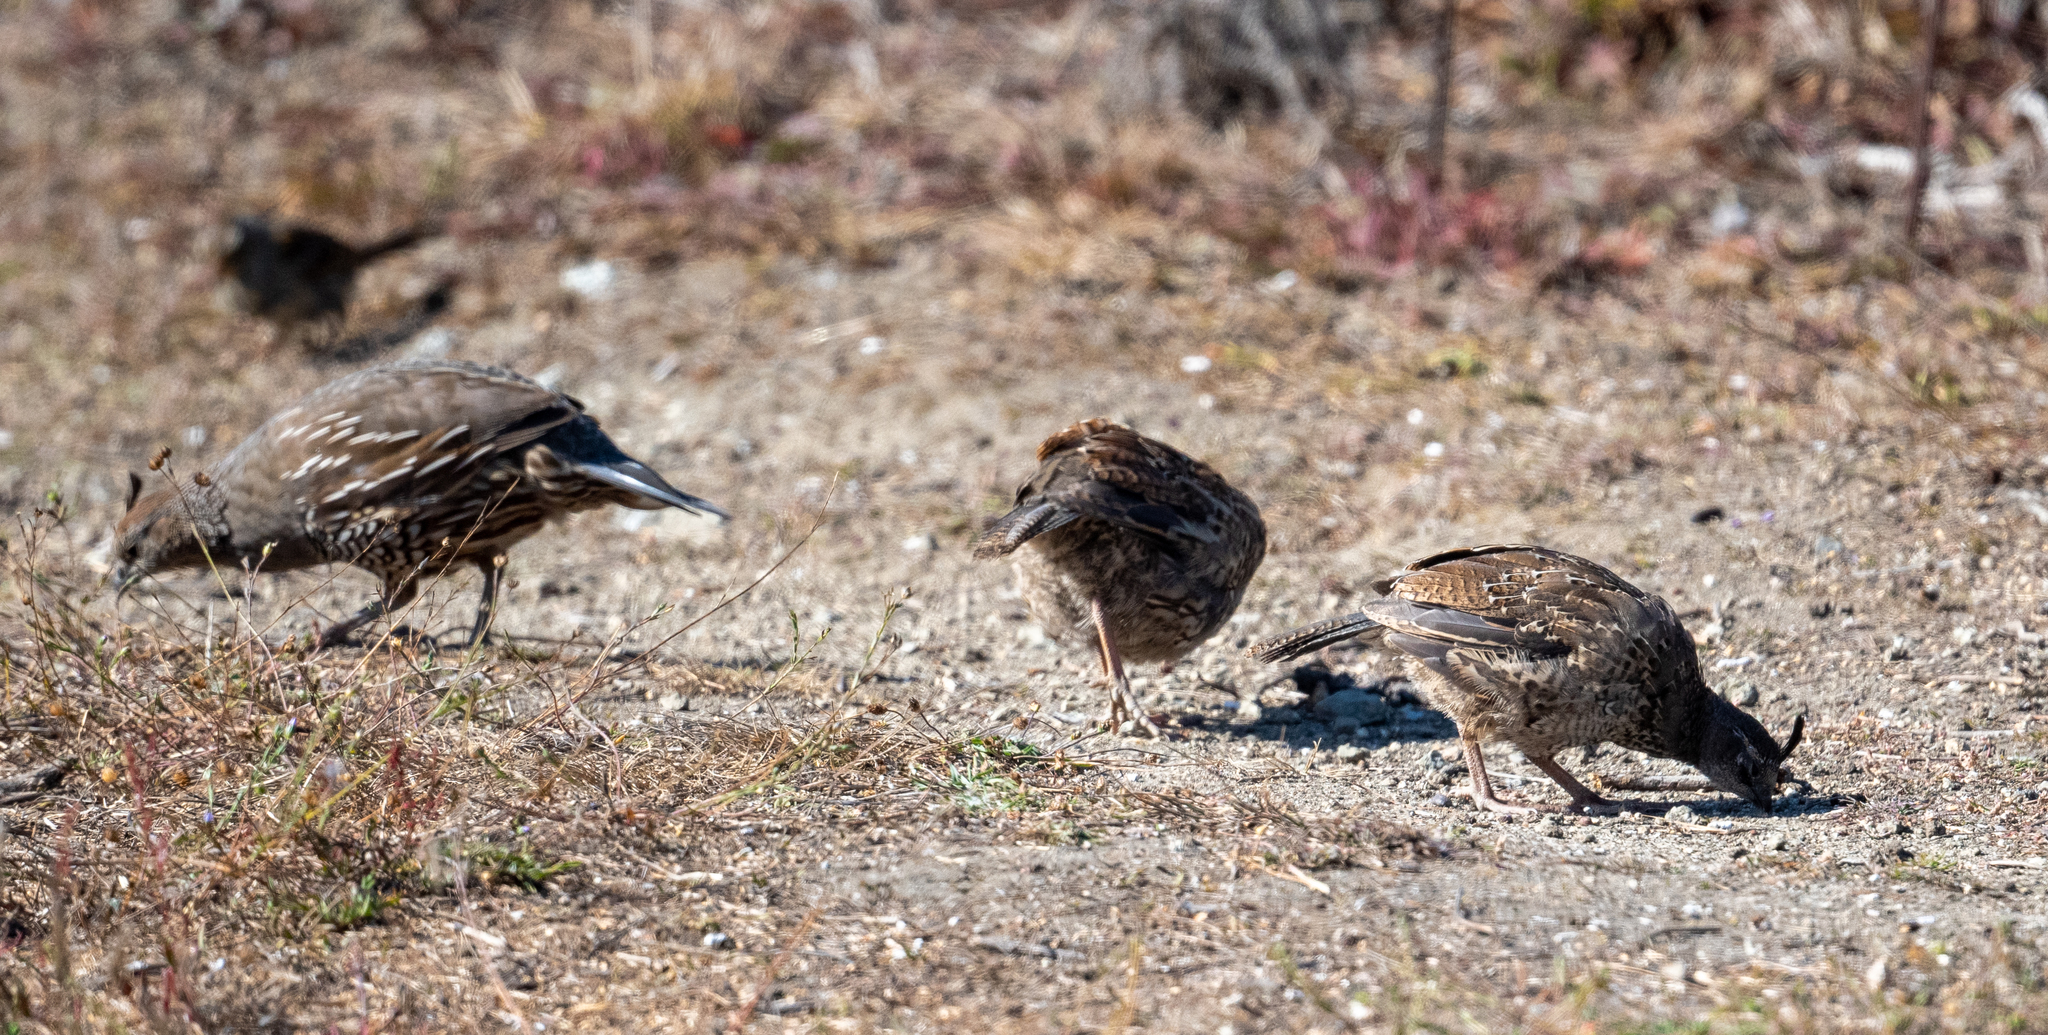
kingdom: Animalia
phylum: Chordata
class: Aves
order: Galliformes
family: Odontophoridae
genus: Callipepla
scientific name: Callipepla californica
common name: California quail
